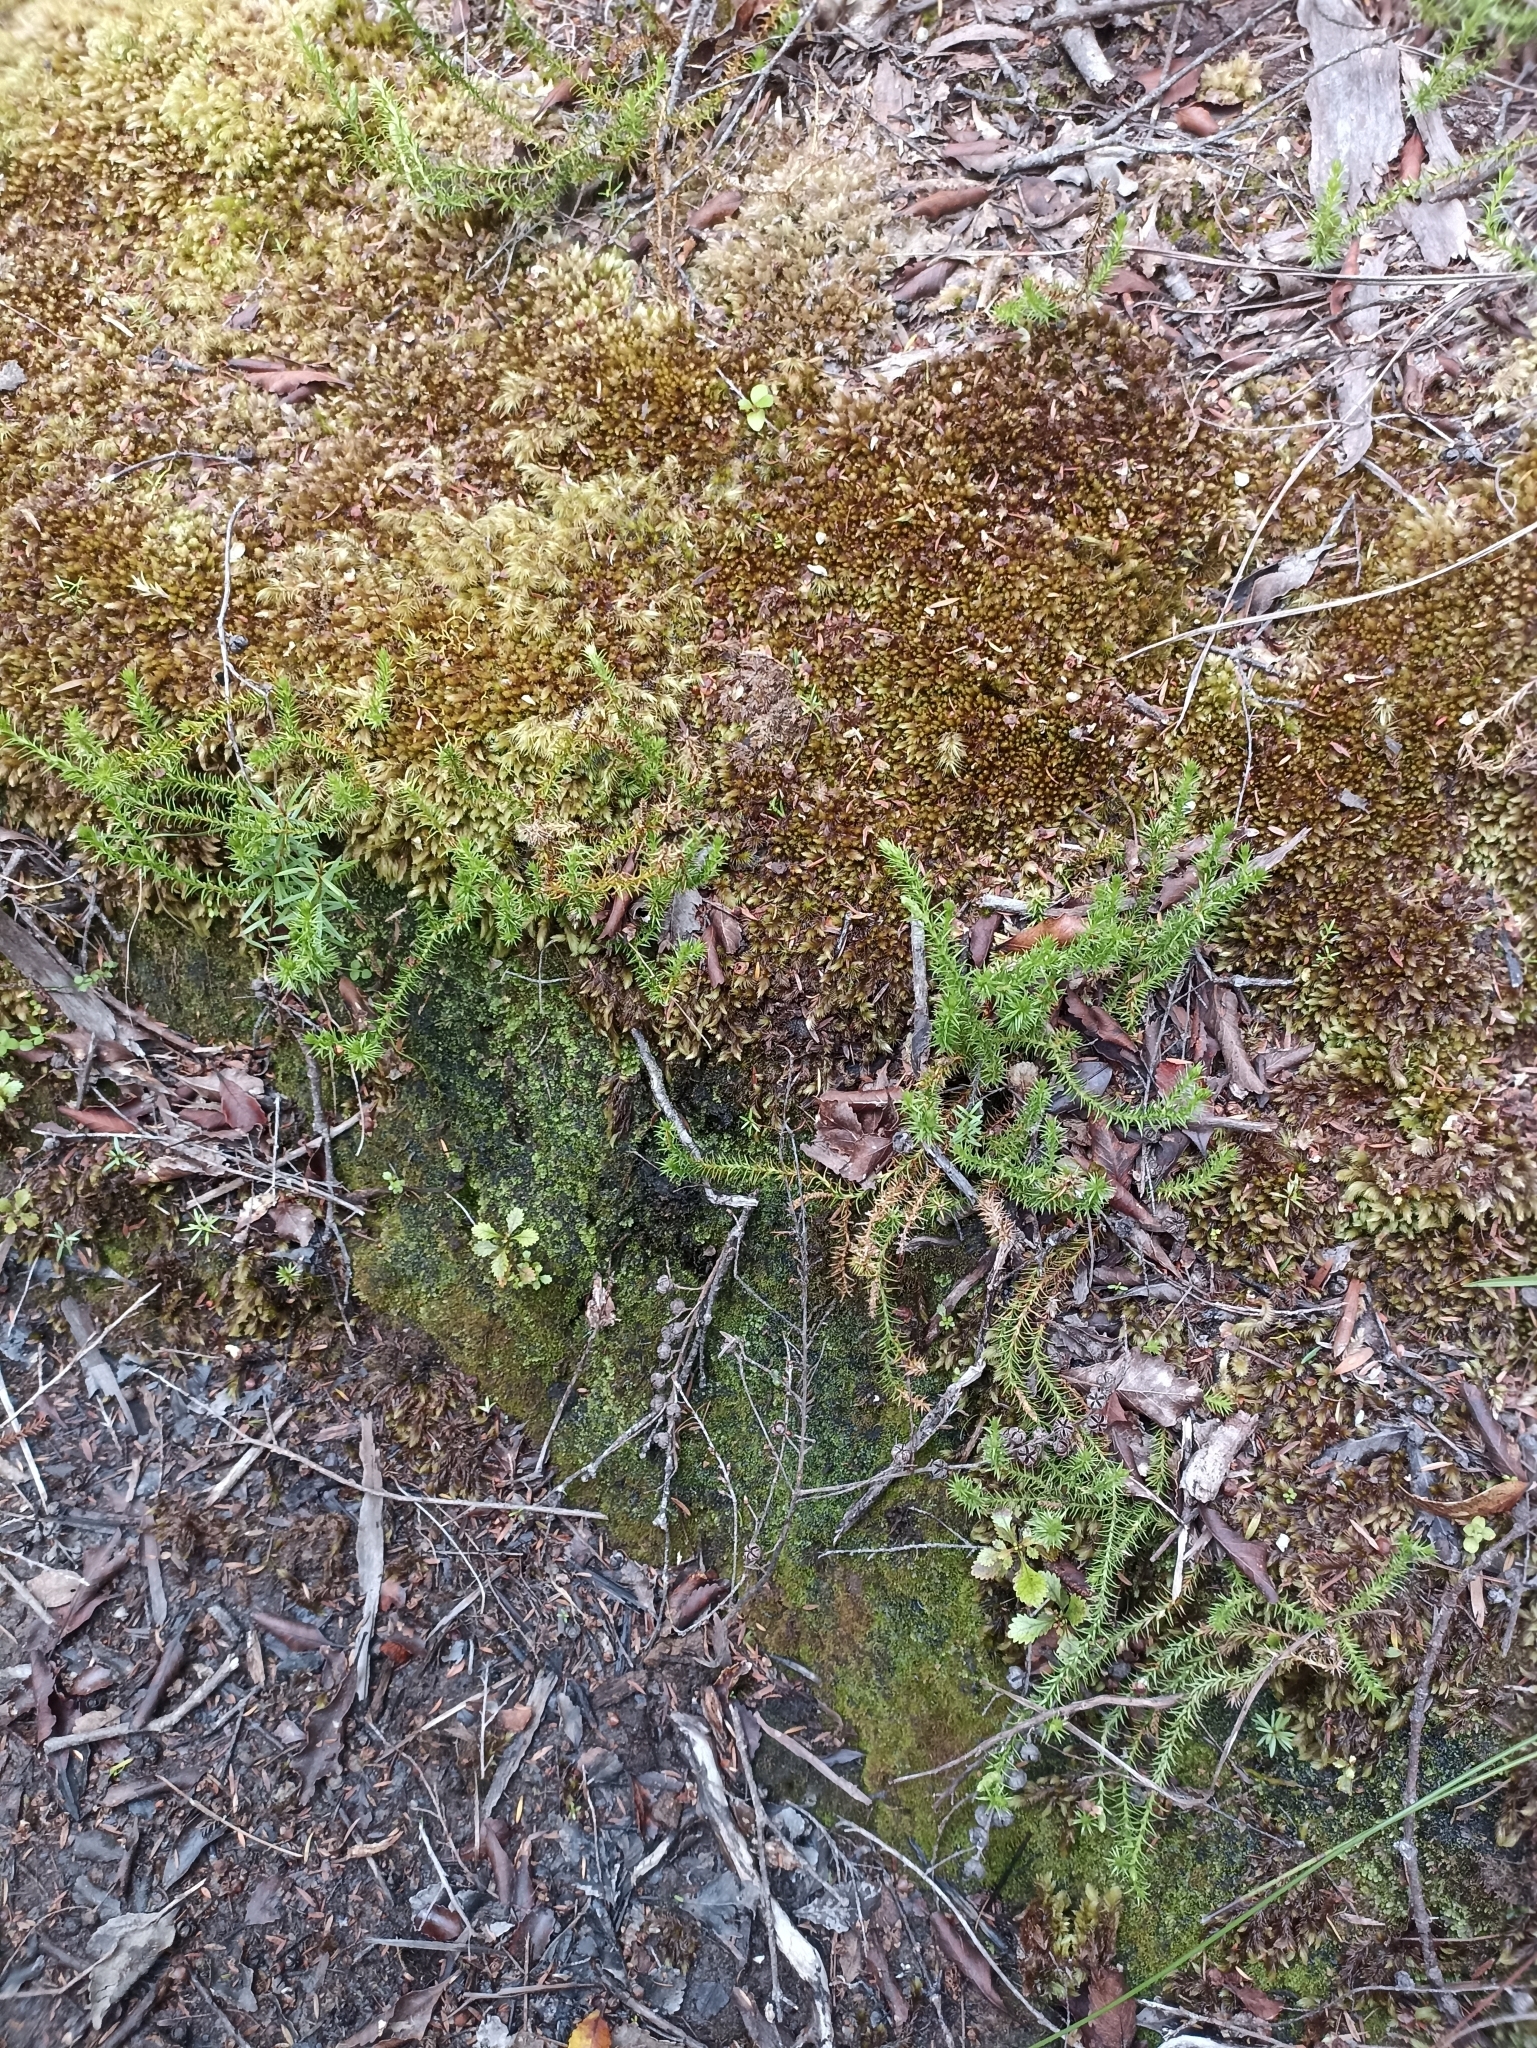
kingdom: Plantae
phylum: Tracheophyta
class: Lycopodiopsida
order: Lycopodiales
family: Lycopodiaceae
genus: Lateristachys
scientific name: Lateristachys lateralis
